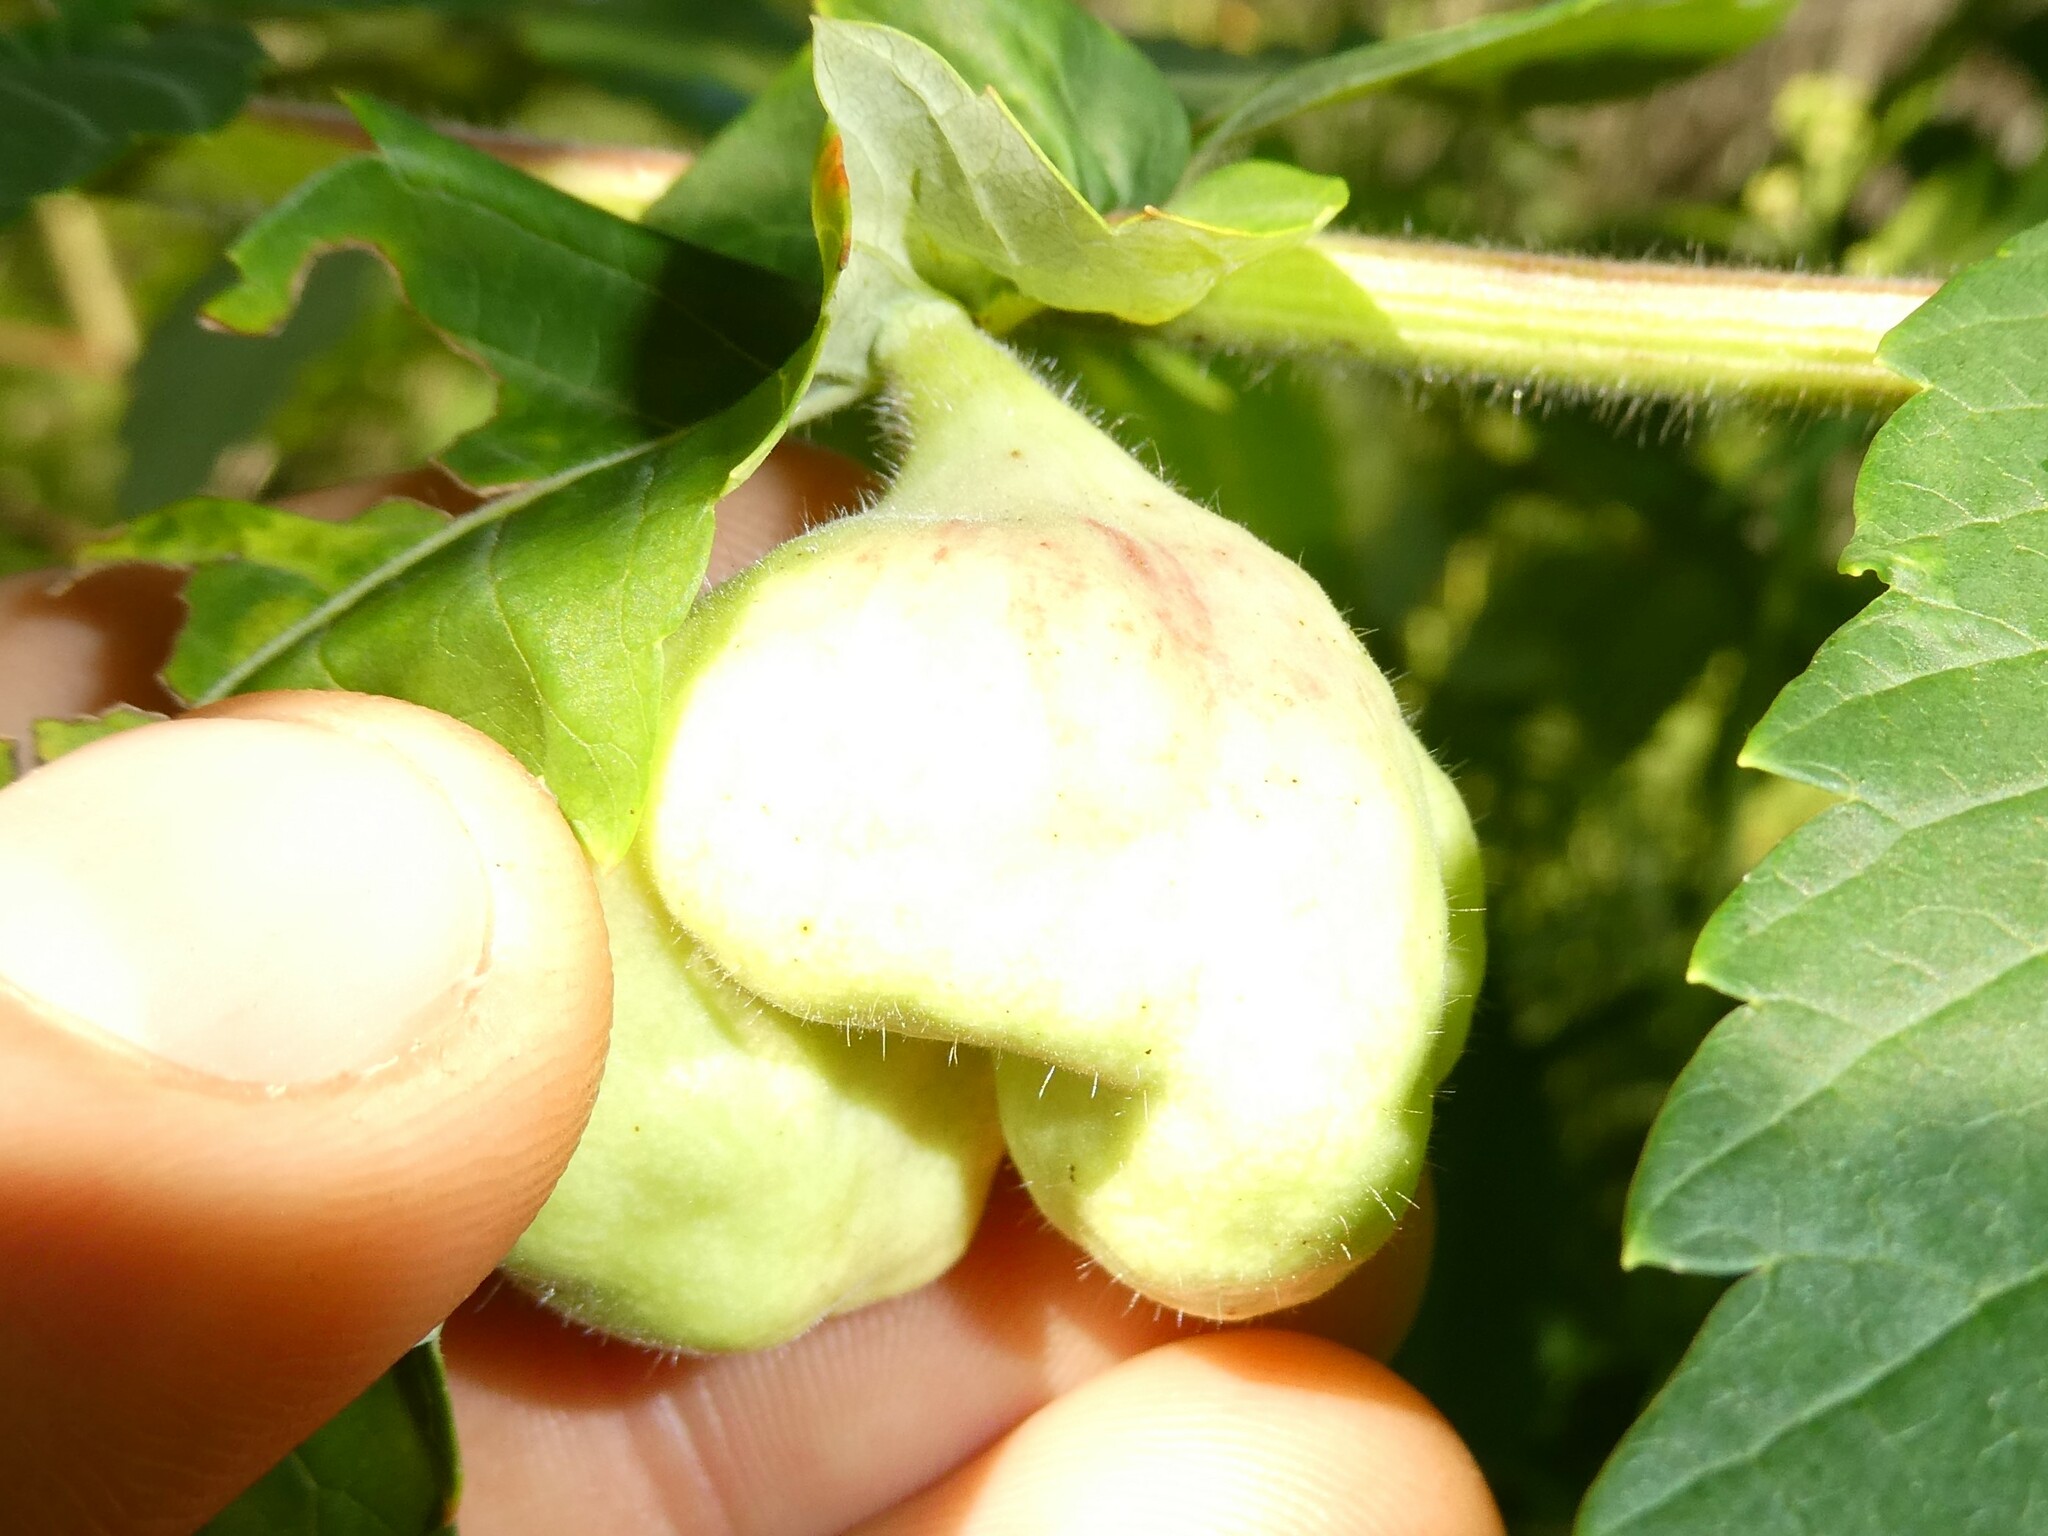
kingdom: Animalia
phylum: Arthropoda
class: Insecta
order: Hemiptera
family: Aphididae
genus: Melaphis
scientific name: Melaphis rhois
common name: Sumac gall aphid
